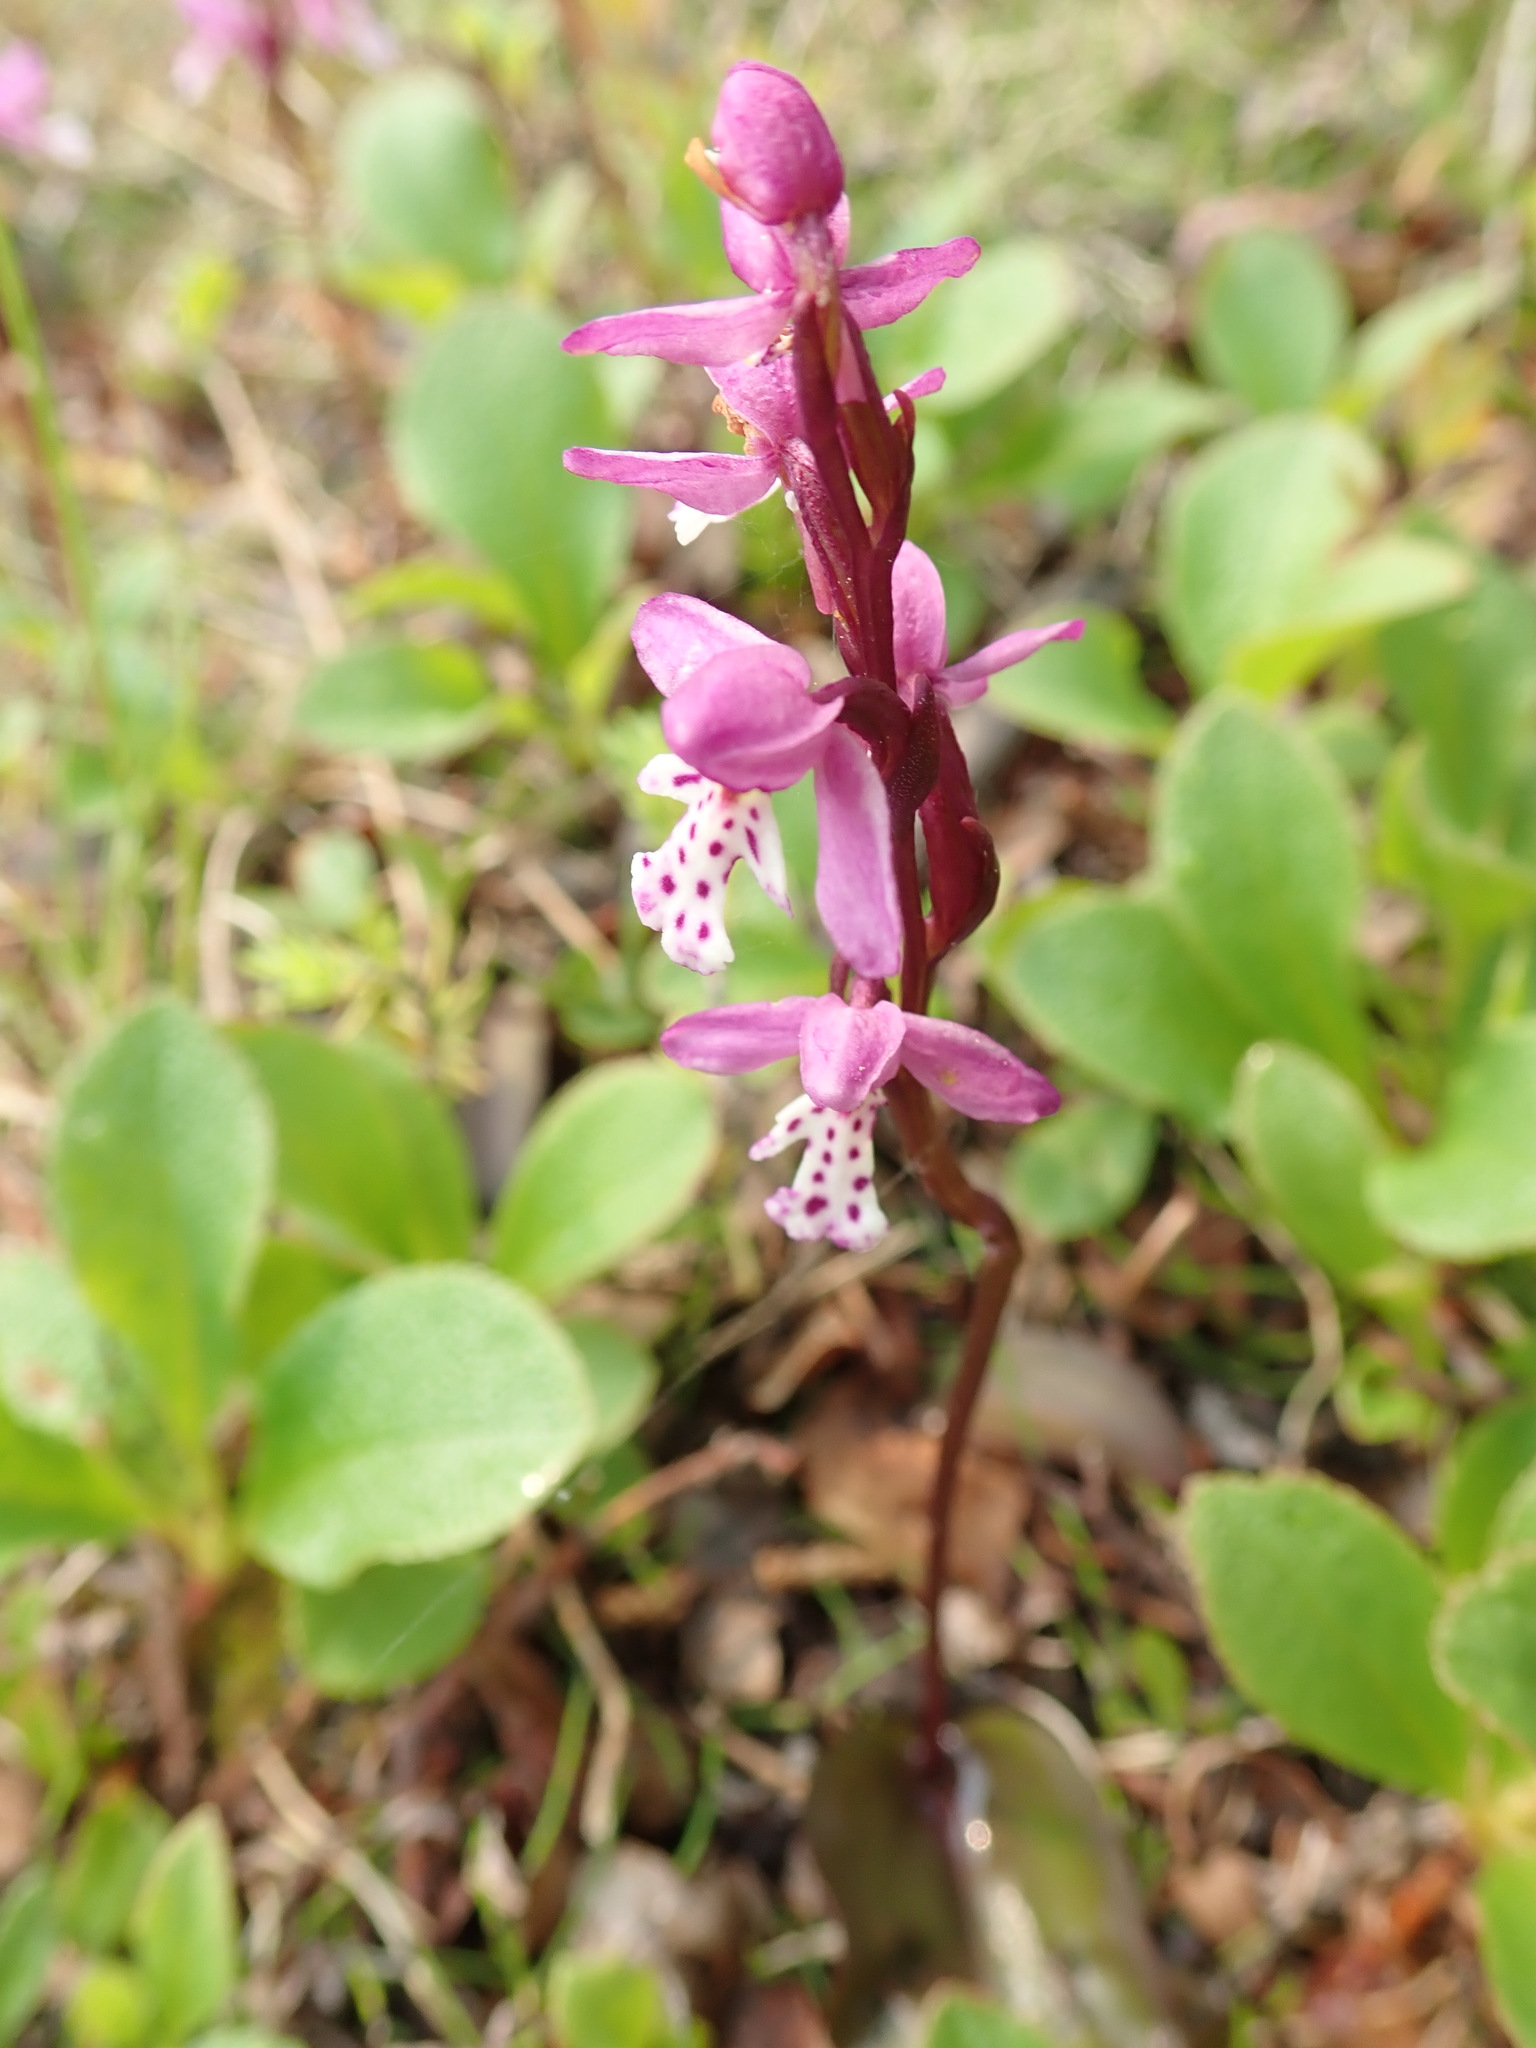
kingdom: Plantae
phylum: Tracheophyta
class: Liliopsida
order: Asparagales
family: Orchidaceae
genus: Galearis
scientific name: Galearis rotundifolia
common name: One-leaved orchis
